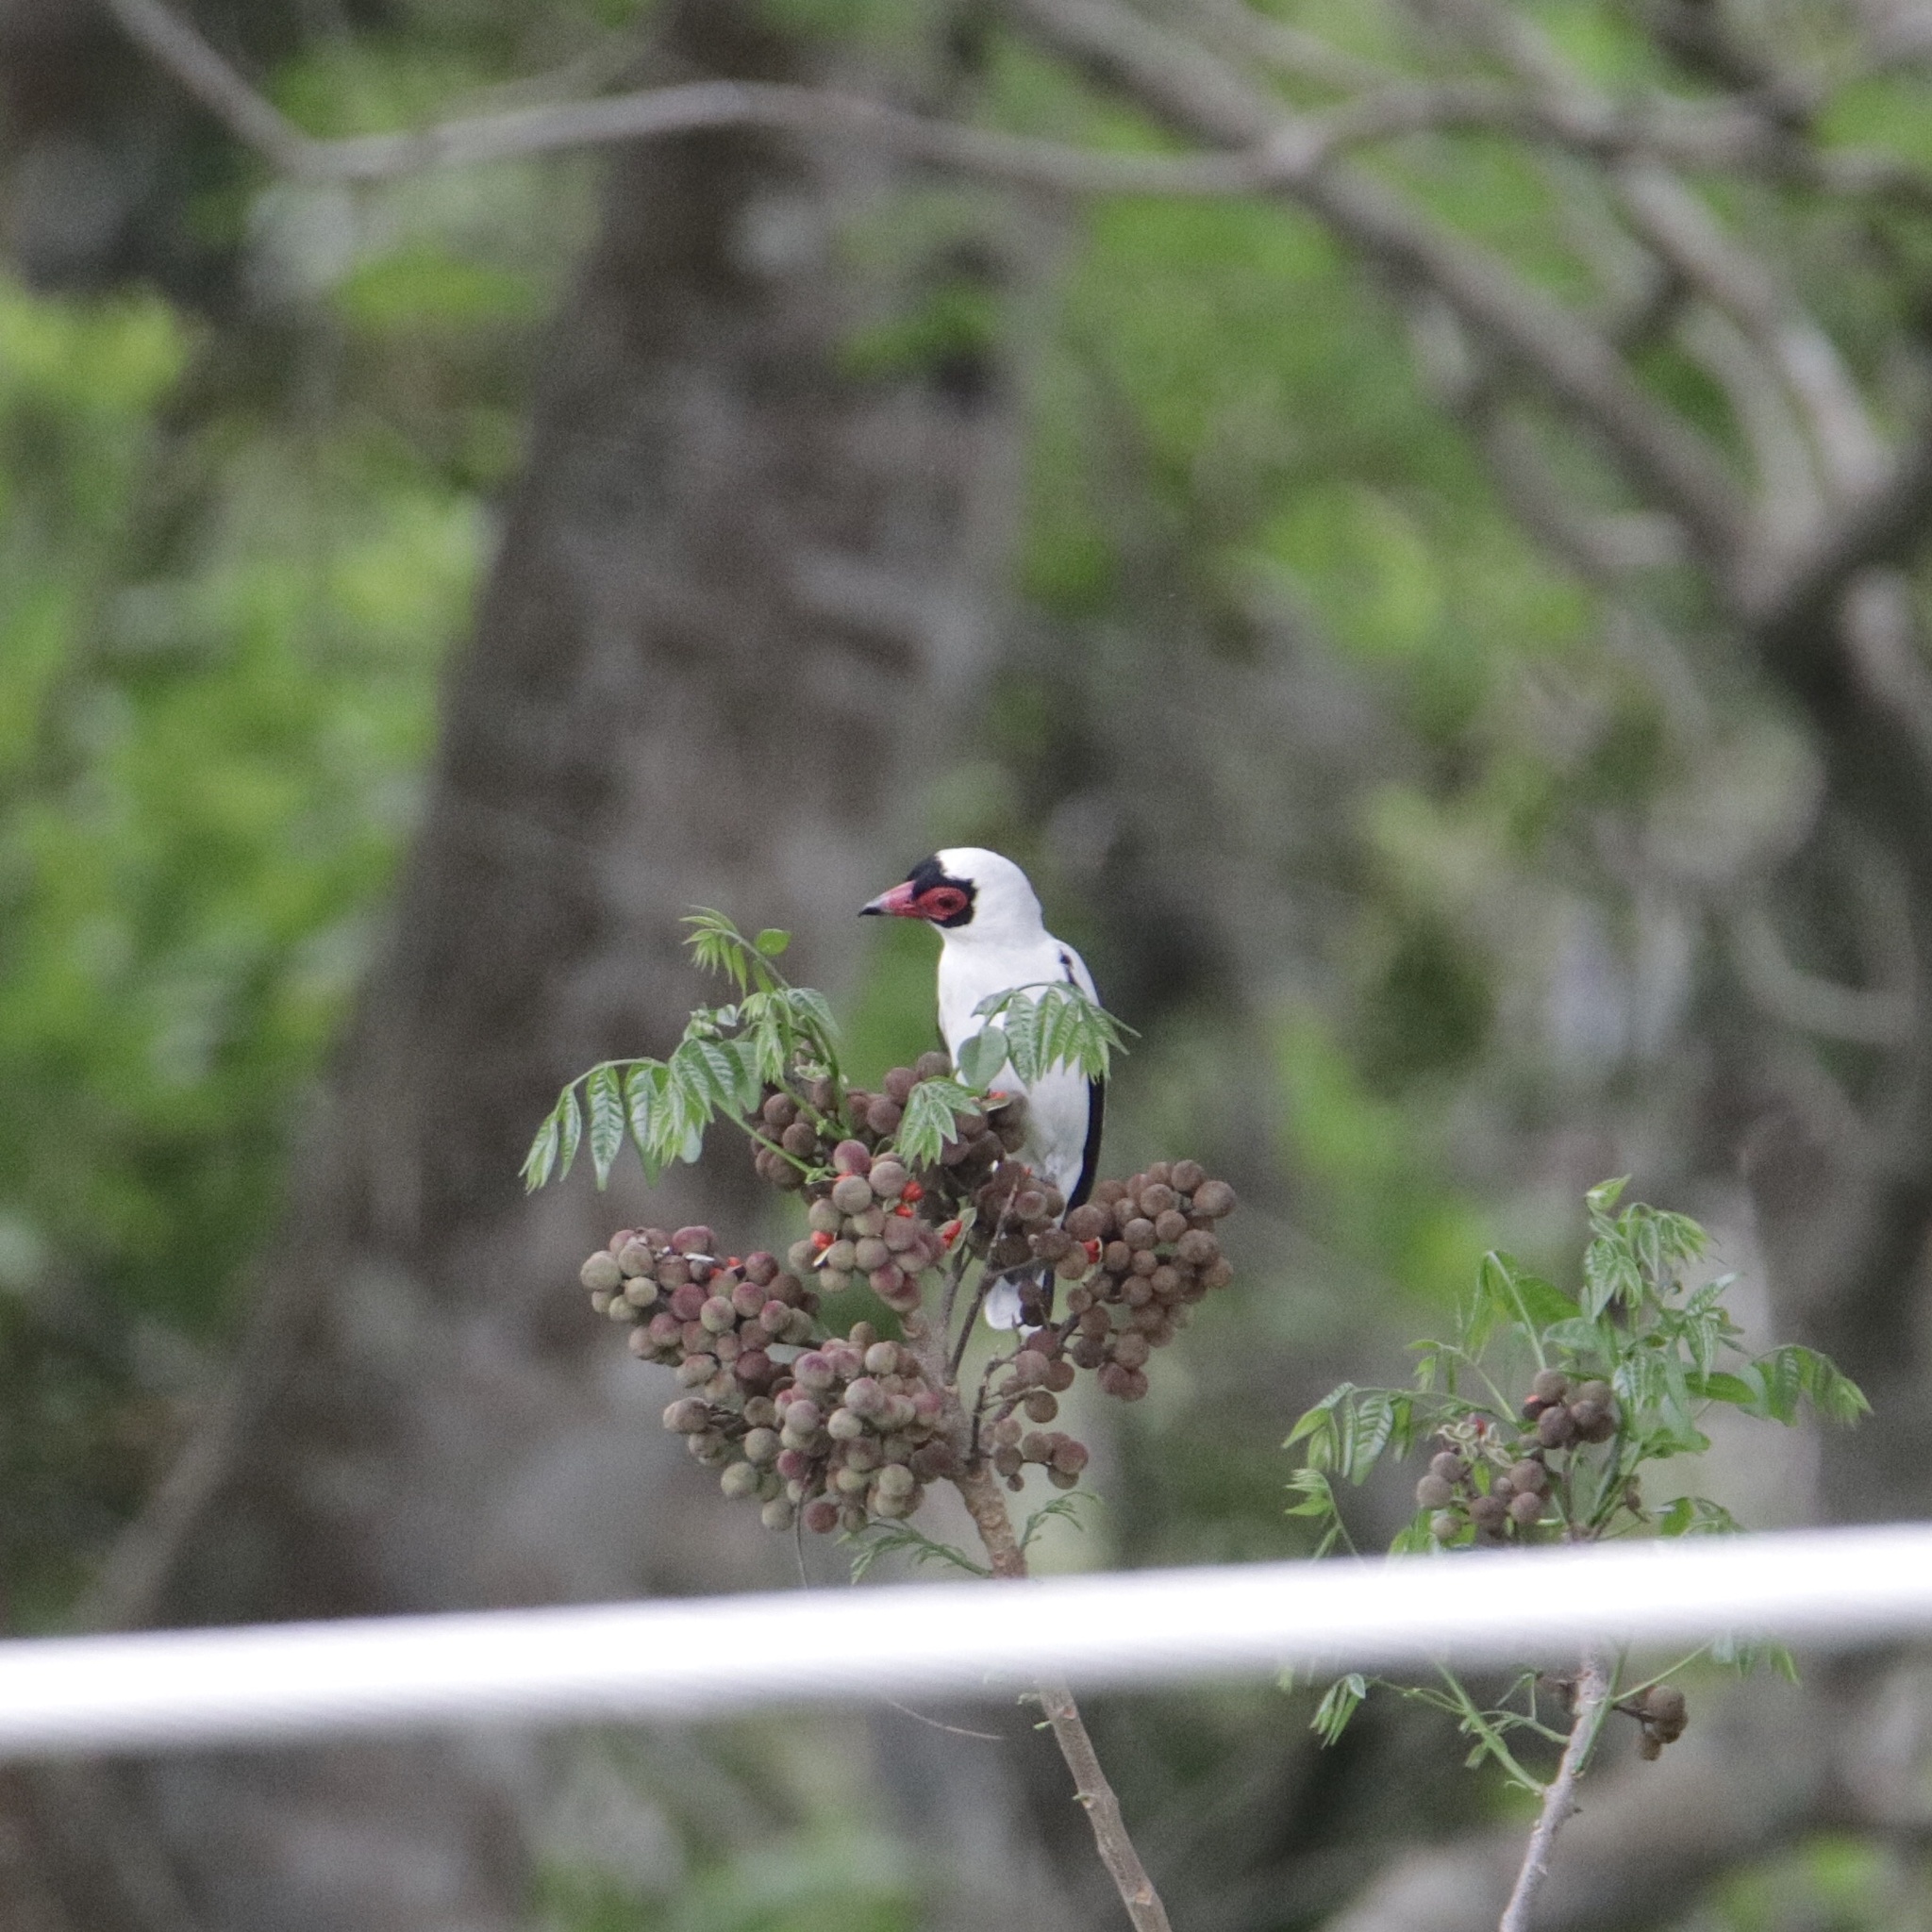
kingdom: Animalia
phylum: Chordata
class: Aves
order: Passeriformes
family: Cotingidae
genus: Tityra
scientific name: Tityra semifasciata
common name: Masked tityra
